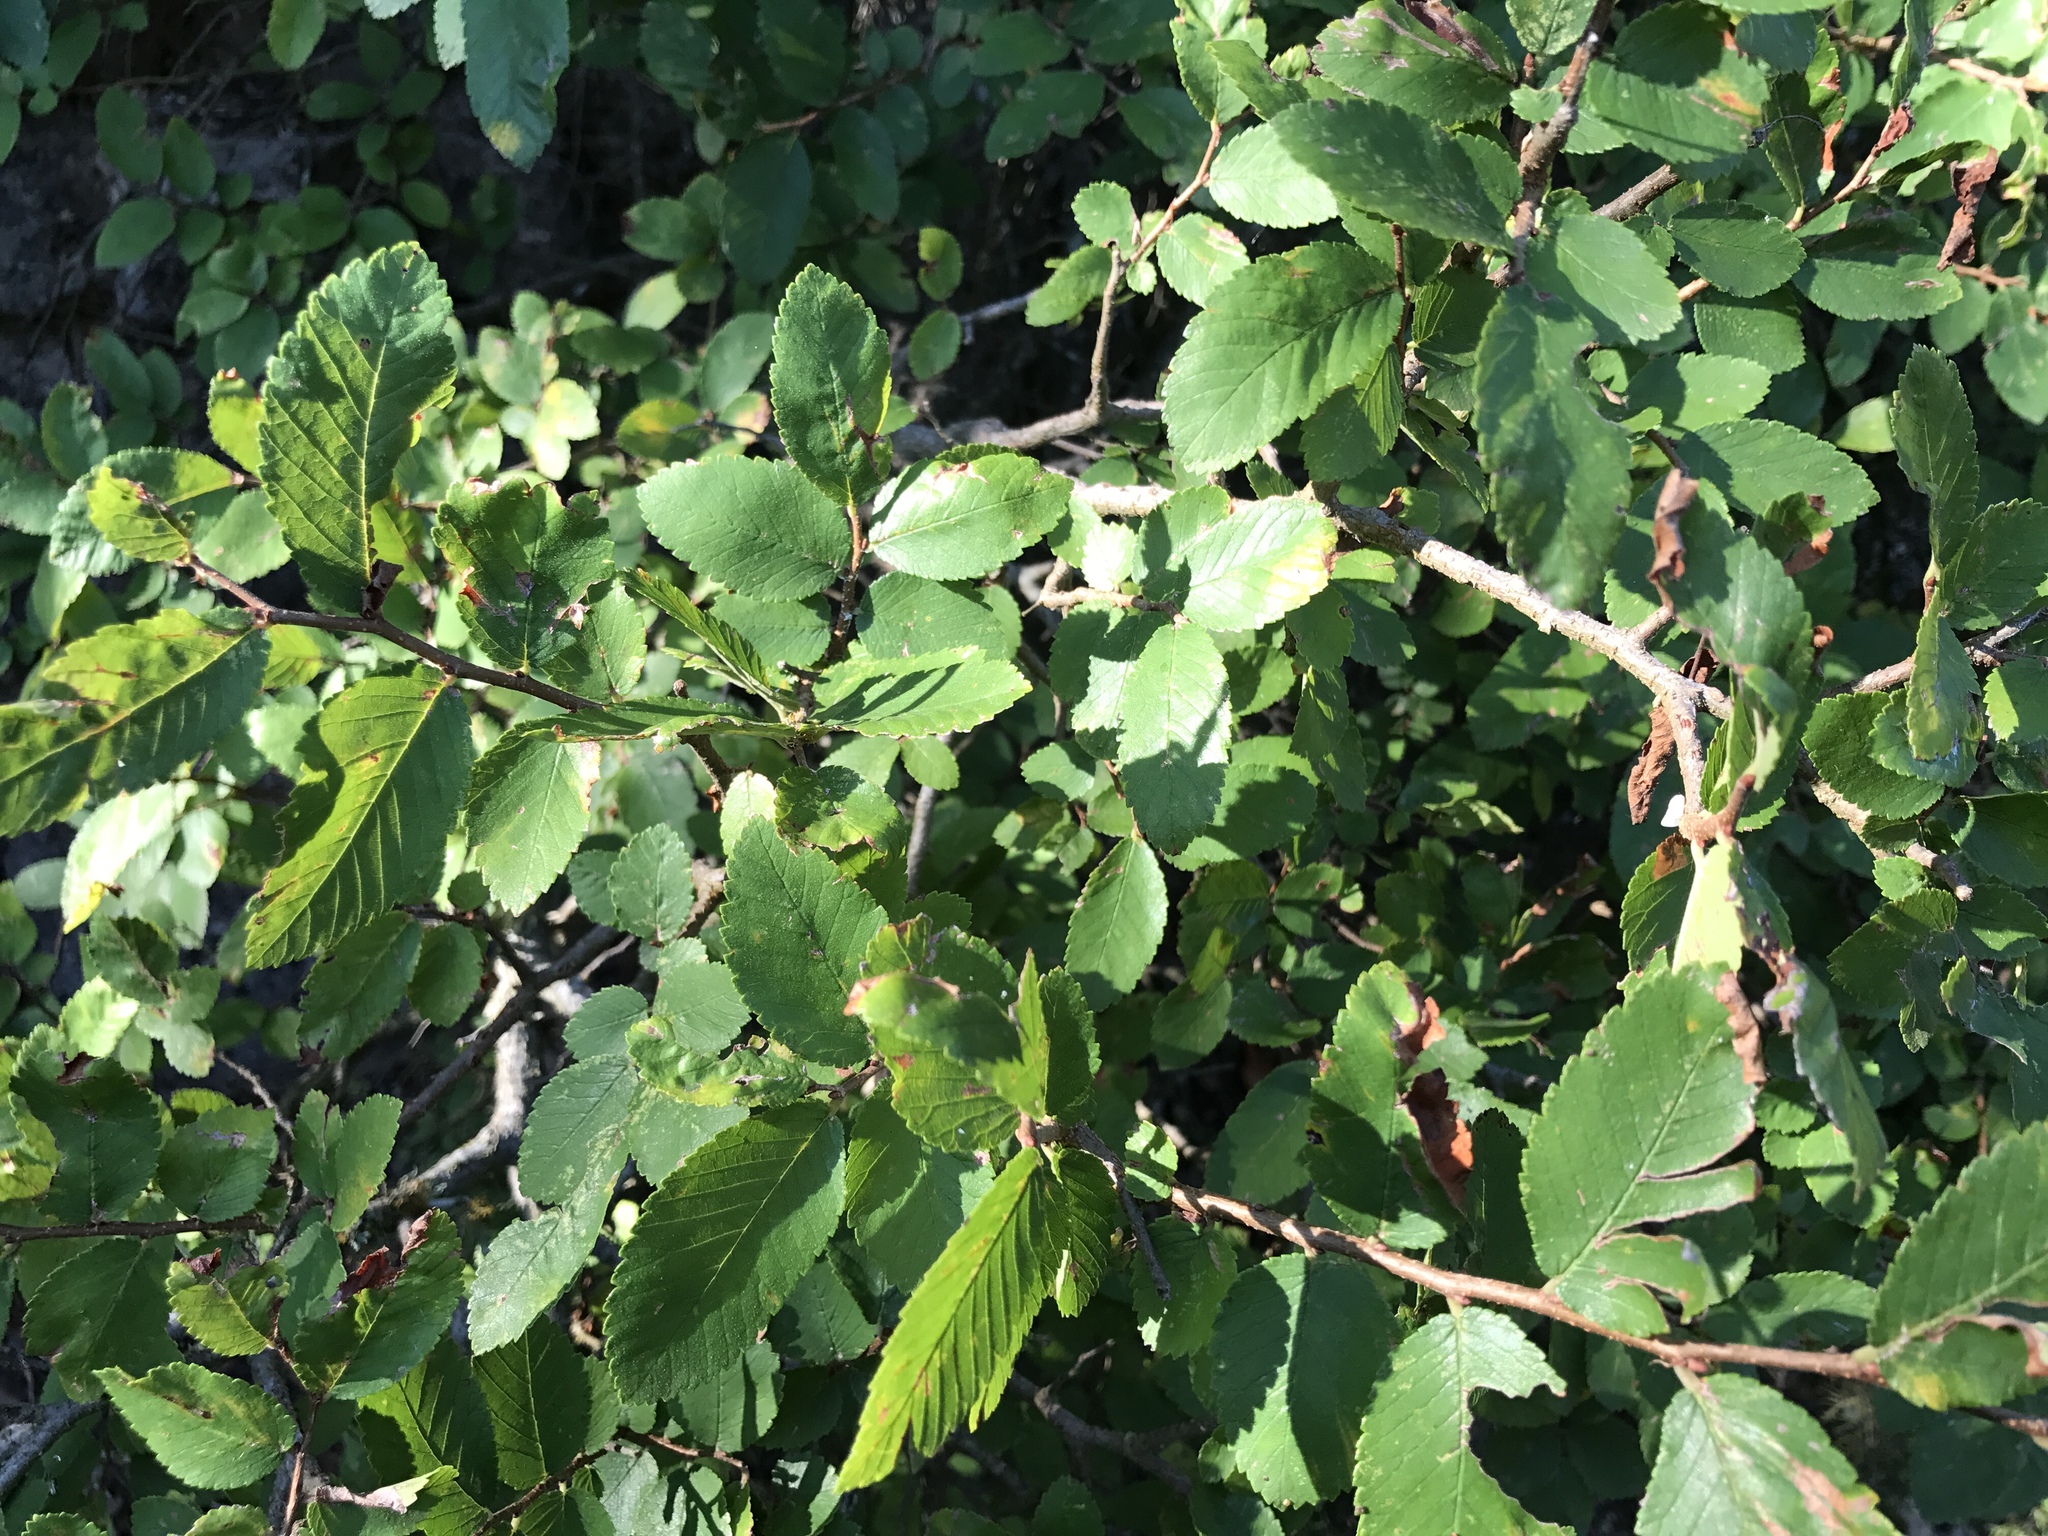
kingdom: Plantae
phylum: Tracheophyta
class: Magnoliopsida
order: Rosales
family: Ulmaceae
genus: Ulmus
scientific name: Ulmus crassifolia
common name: Basket elm
